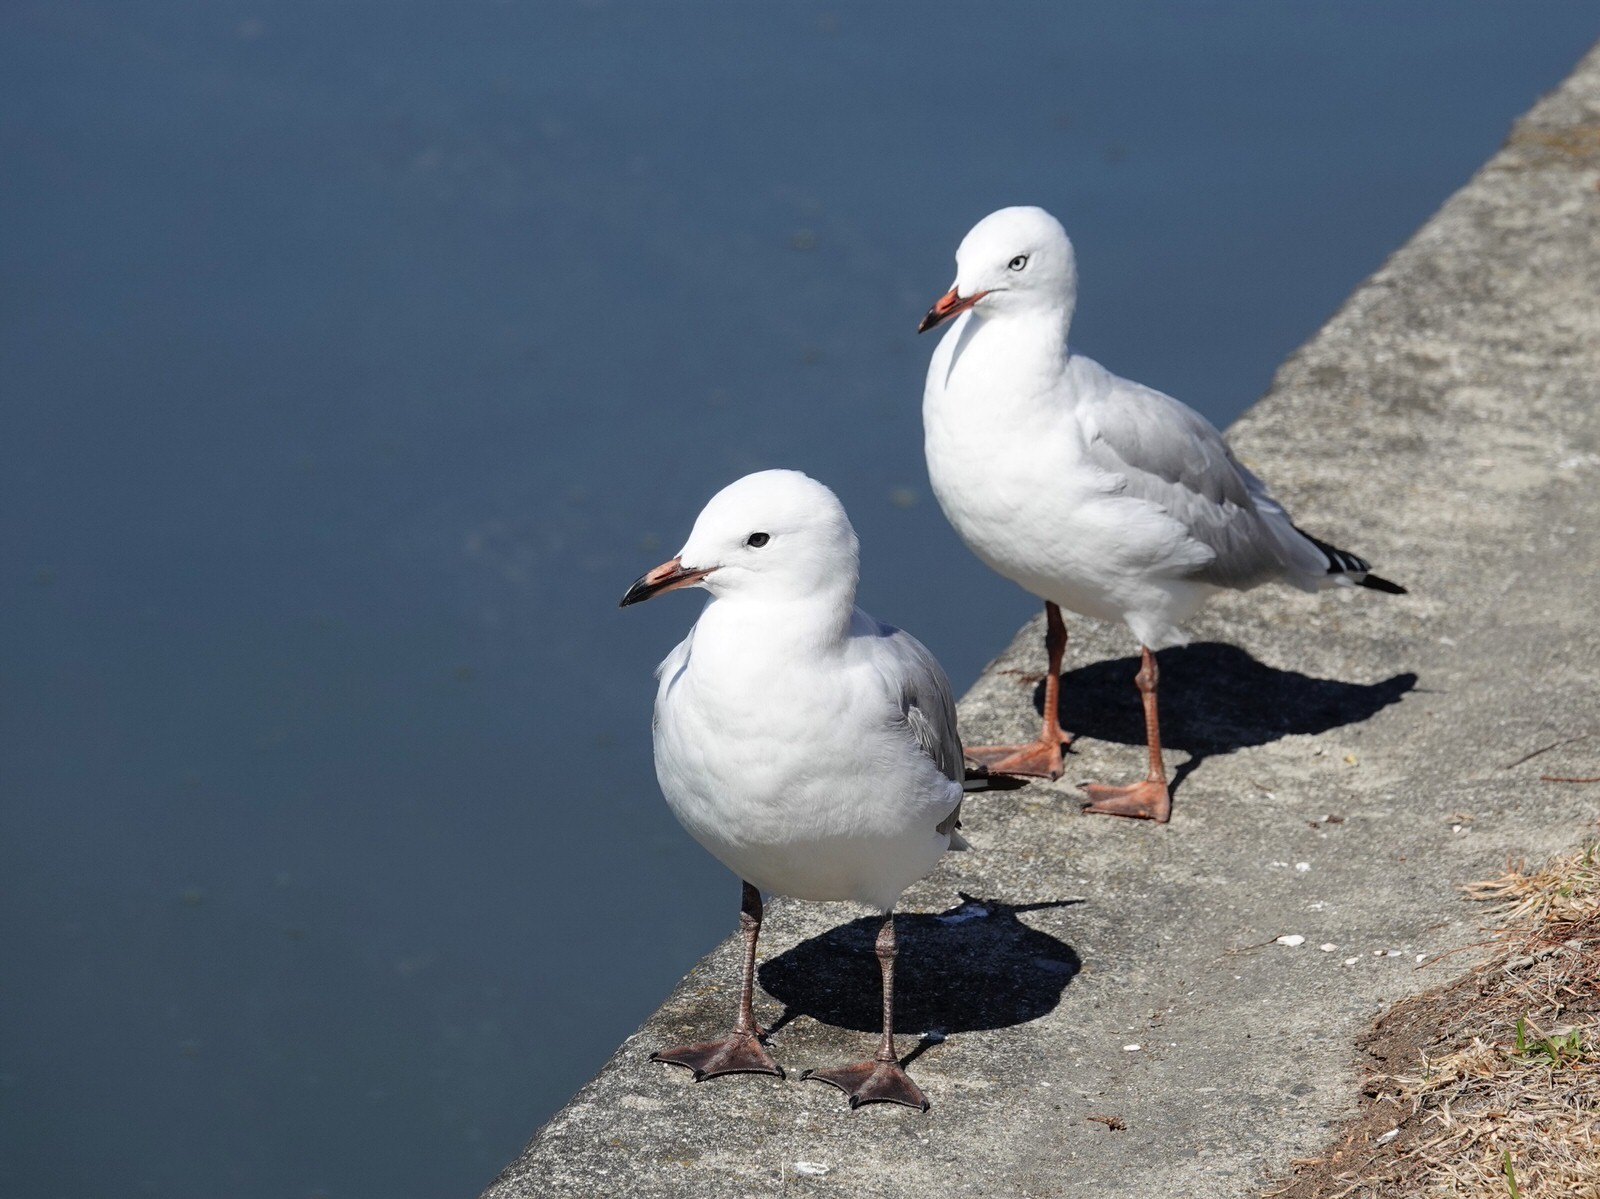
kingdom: Animalia
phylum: Chordata
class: Aves
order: Charadriiformes
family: Laridae
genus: Chroicocephalus
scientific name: Chroicocephalus novaehollandiae
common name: Silver gull
